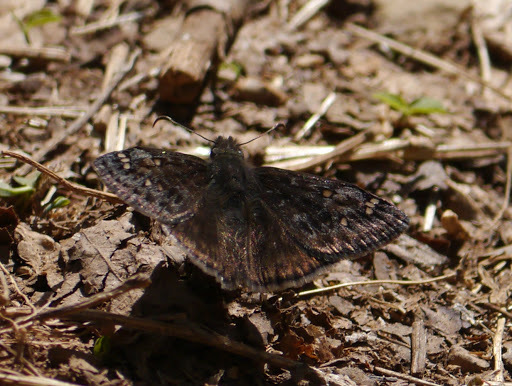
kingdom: Animalia
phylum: Arthropoda
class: Insecta
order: Lepidoptera
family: Hesperiidae
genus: Erynnis
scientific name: Erynnis juvenalis
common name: Juvenal's duskywing
